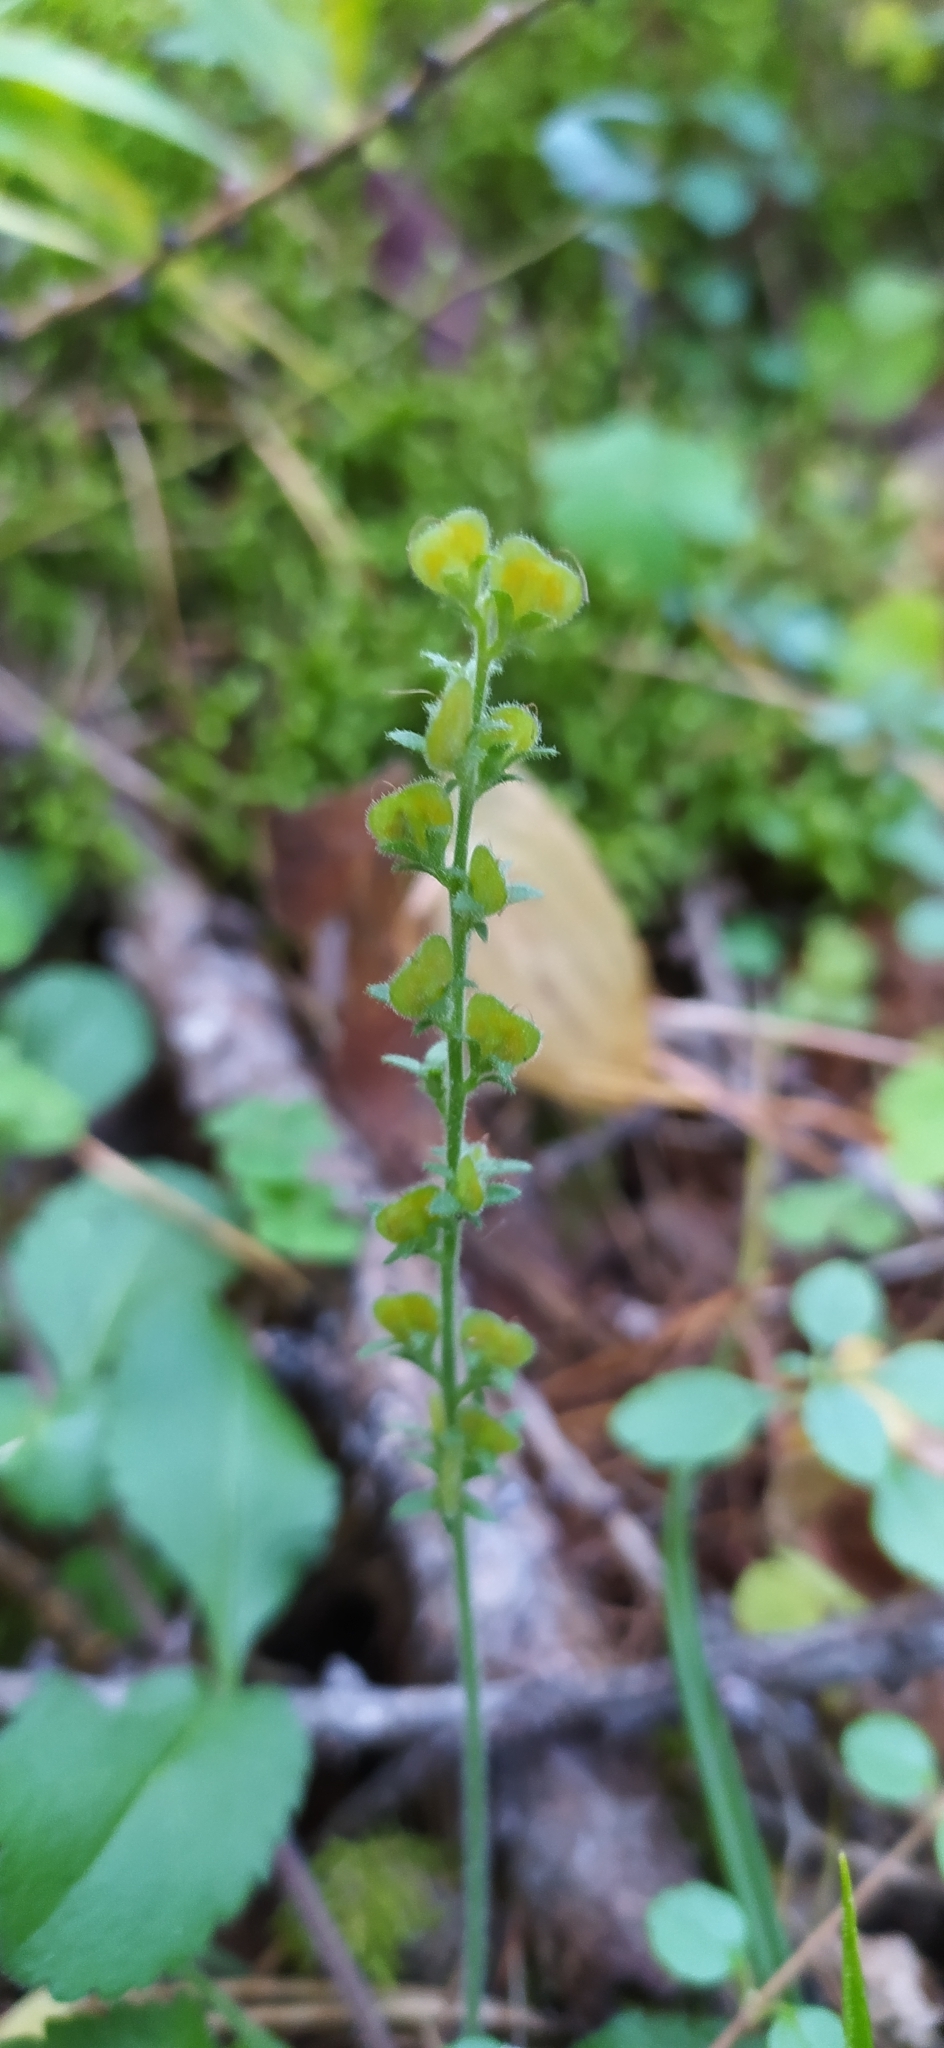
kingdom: Plantae
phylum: Tracheophyta
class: Magnoliopsida
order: Lamiales
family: Plantaginaceae
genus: Veronica
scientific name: Veronica officinalis
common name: Common speedwell
